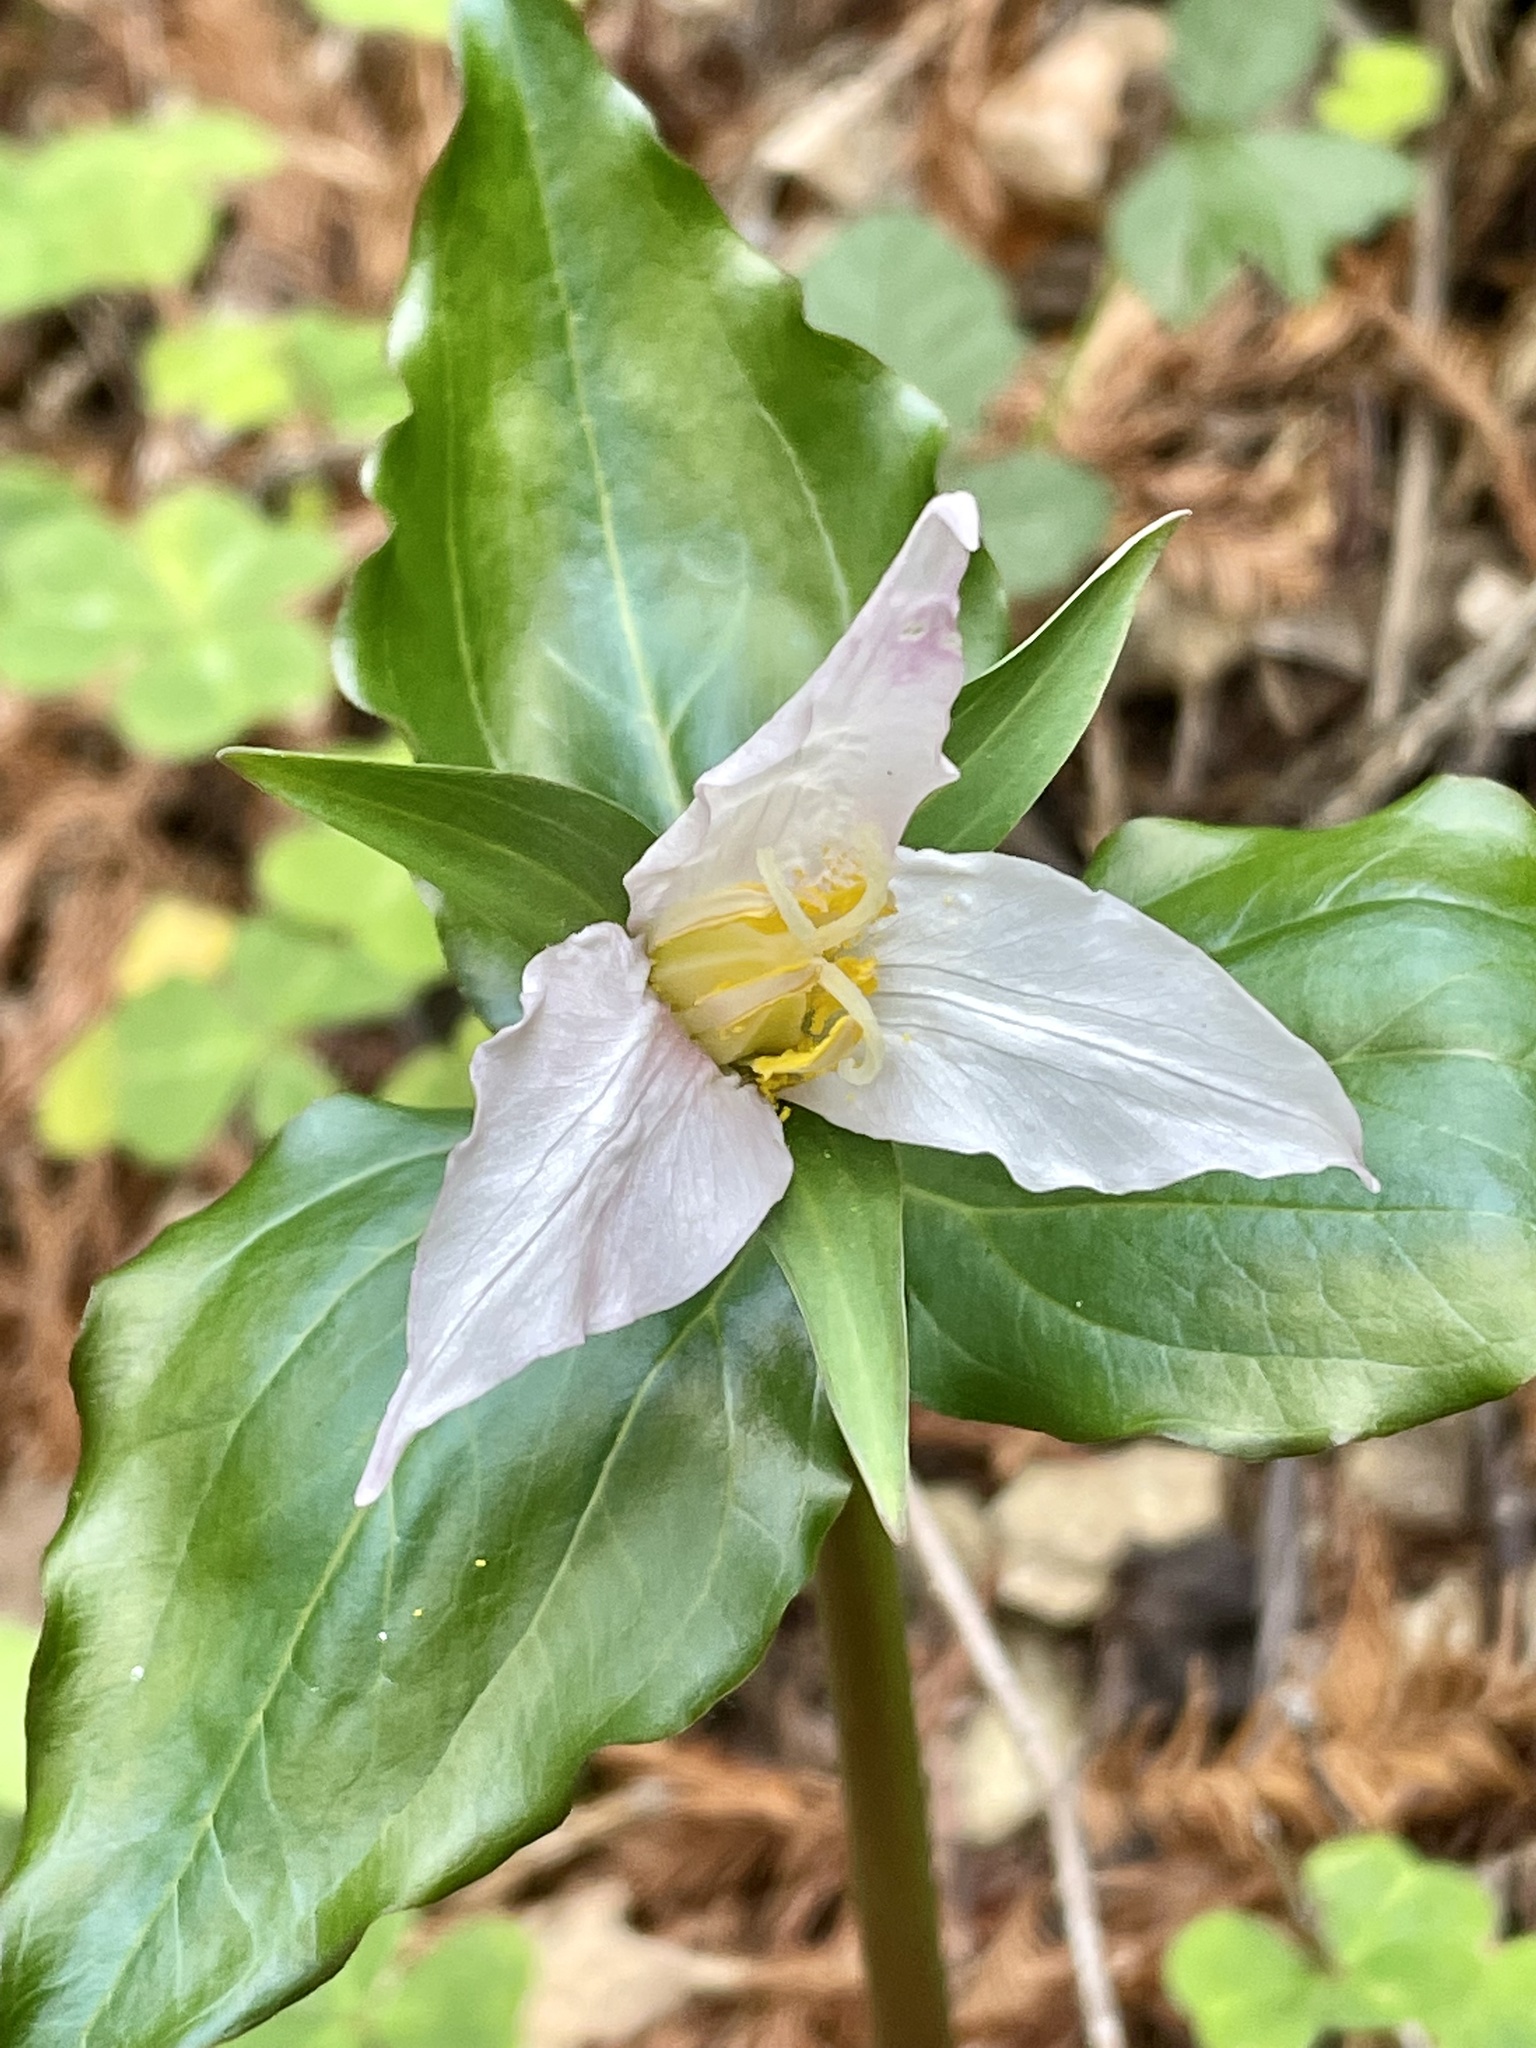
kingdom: Plantae
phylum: Tracheophyta
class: Liliopsida
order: Liliales
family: Melanthiaceae
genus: Trillium
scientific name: Trillium ovatum
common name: Pacific trillium
